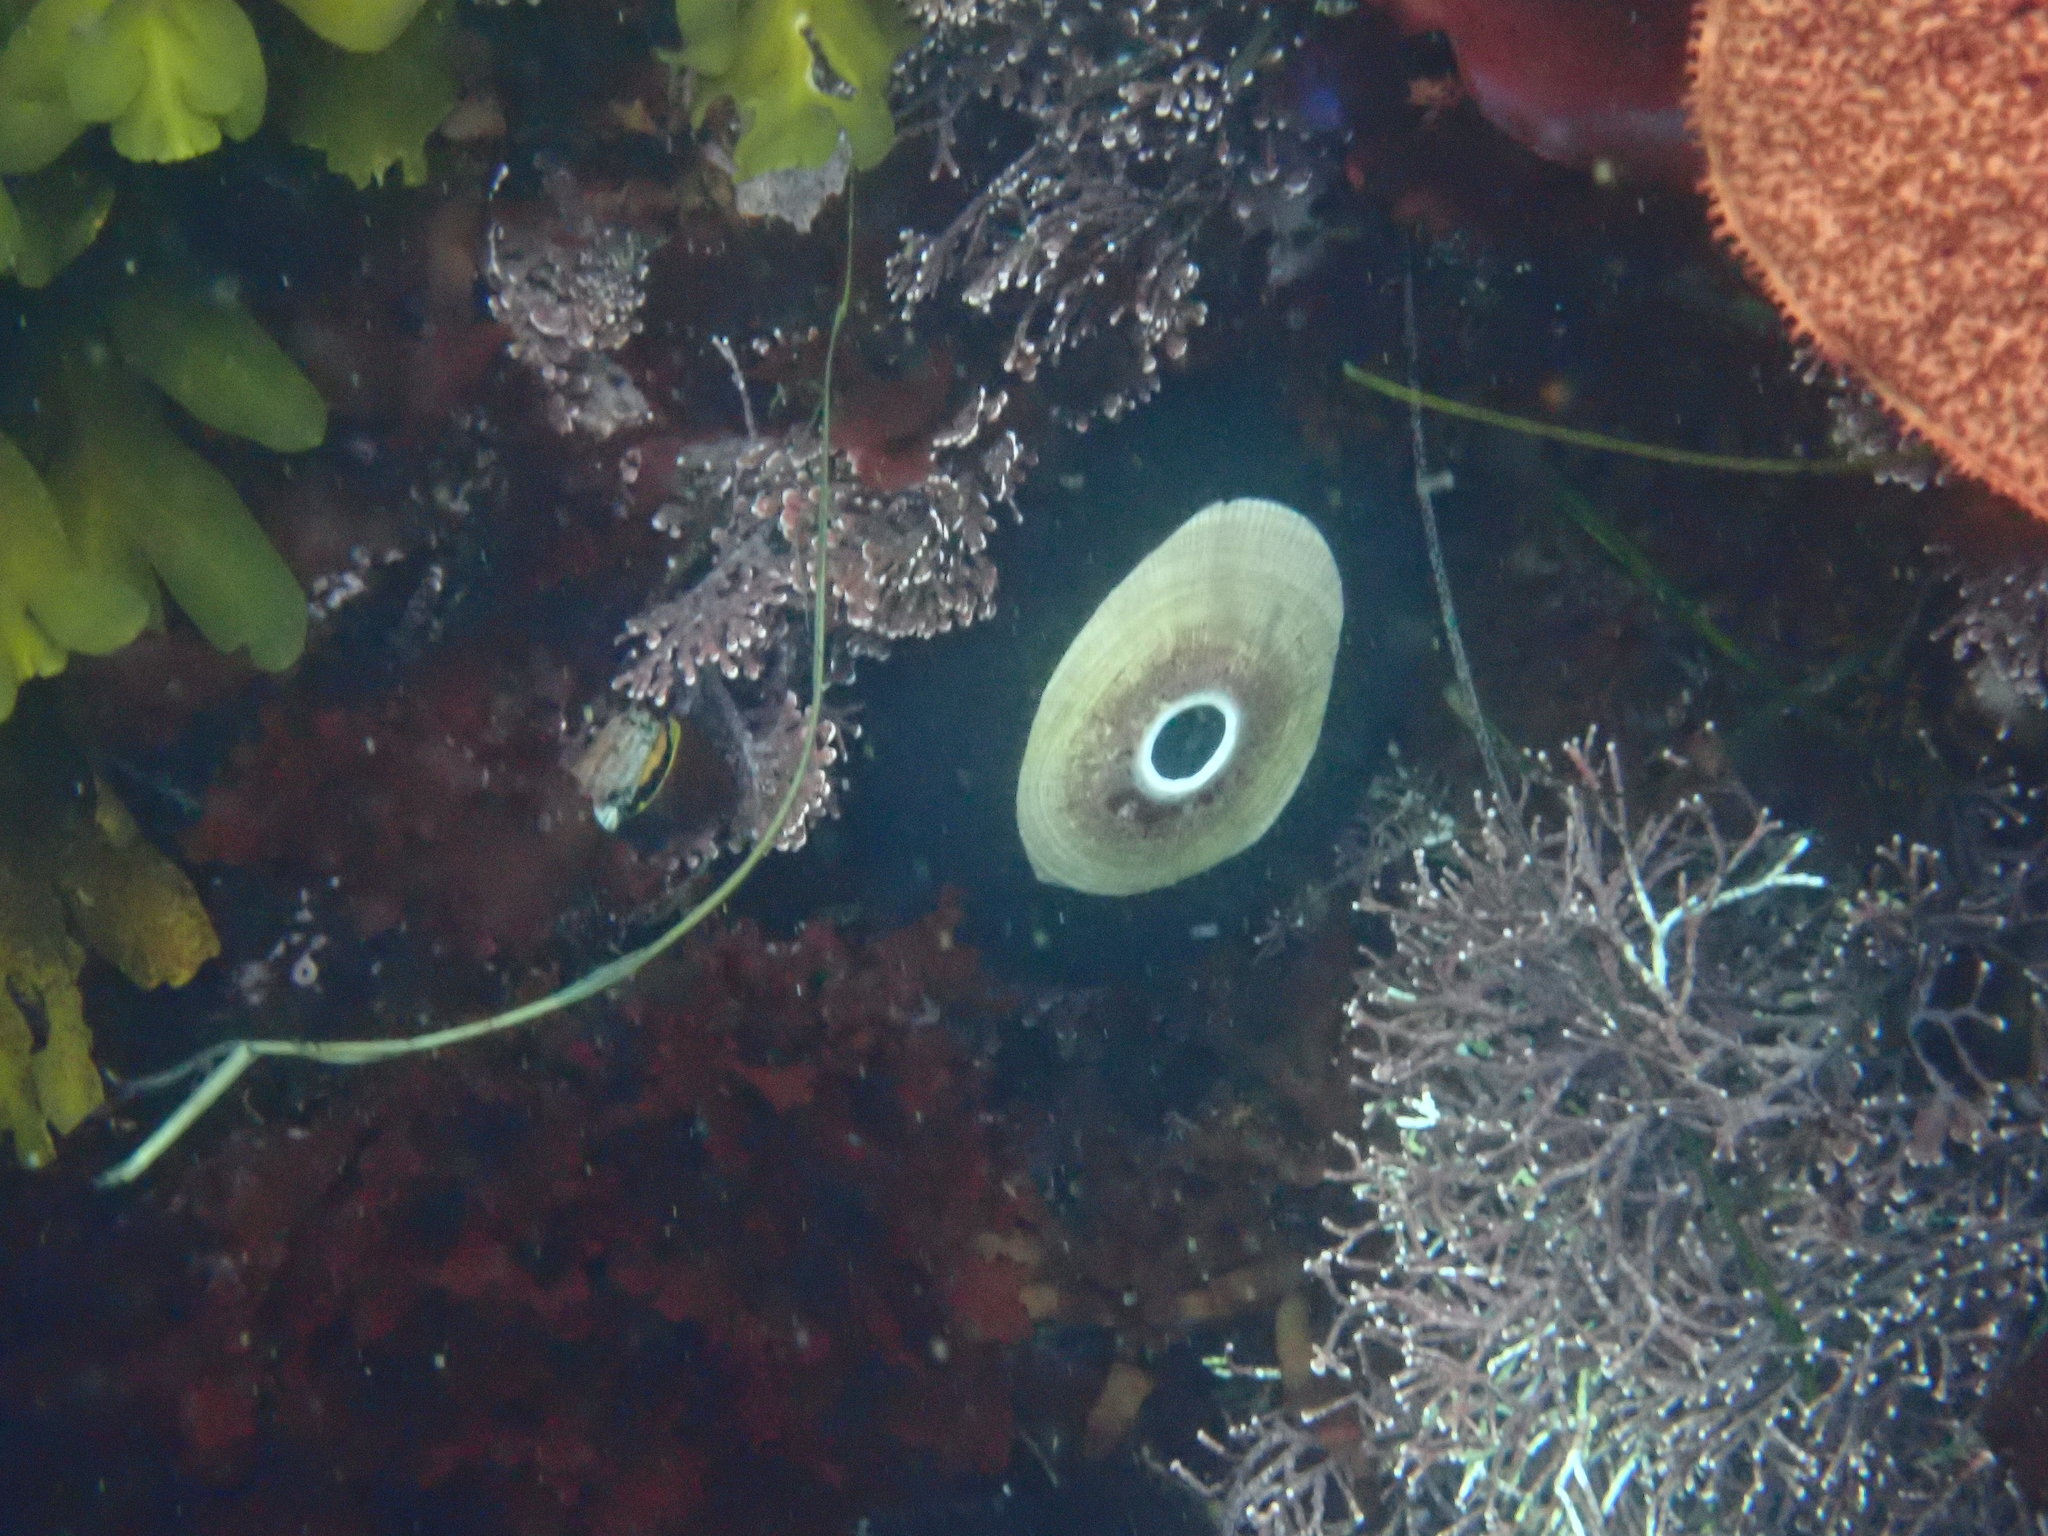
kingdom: Animalia
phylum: Mollusca
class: Gastropoda
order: Lepetellida
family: Fissurellidae
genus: Megathura
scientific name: Megathura crenulata
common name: Giant keyhole limpet
